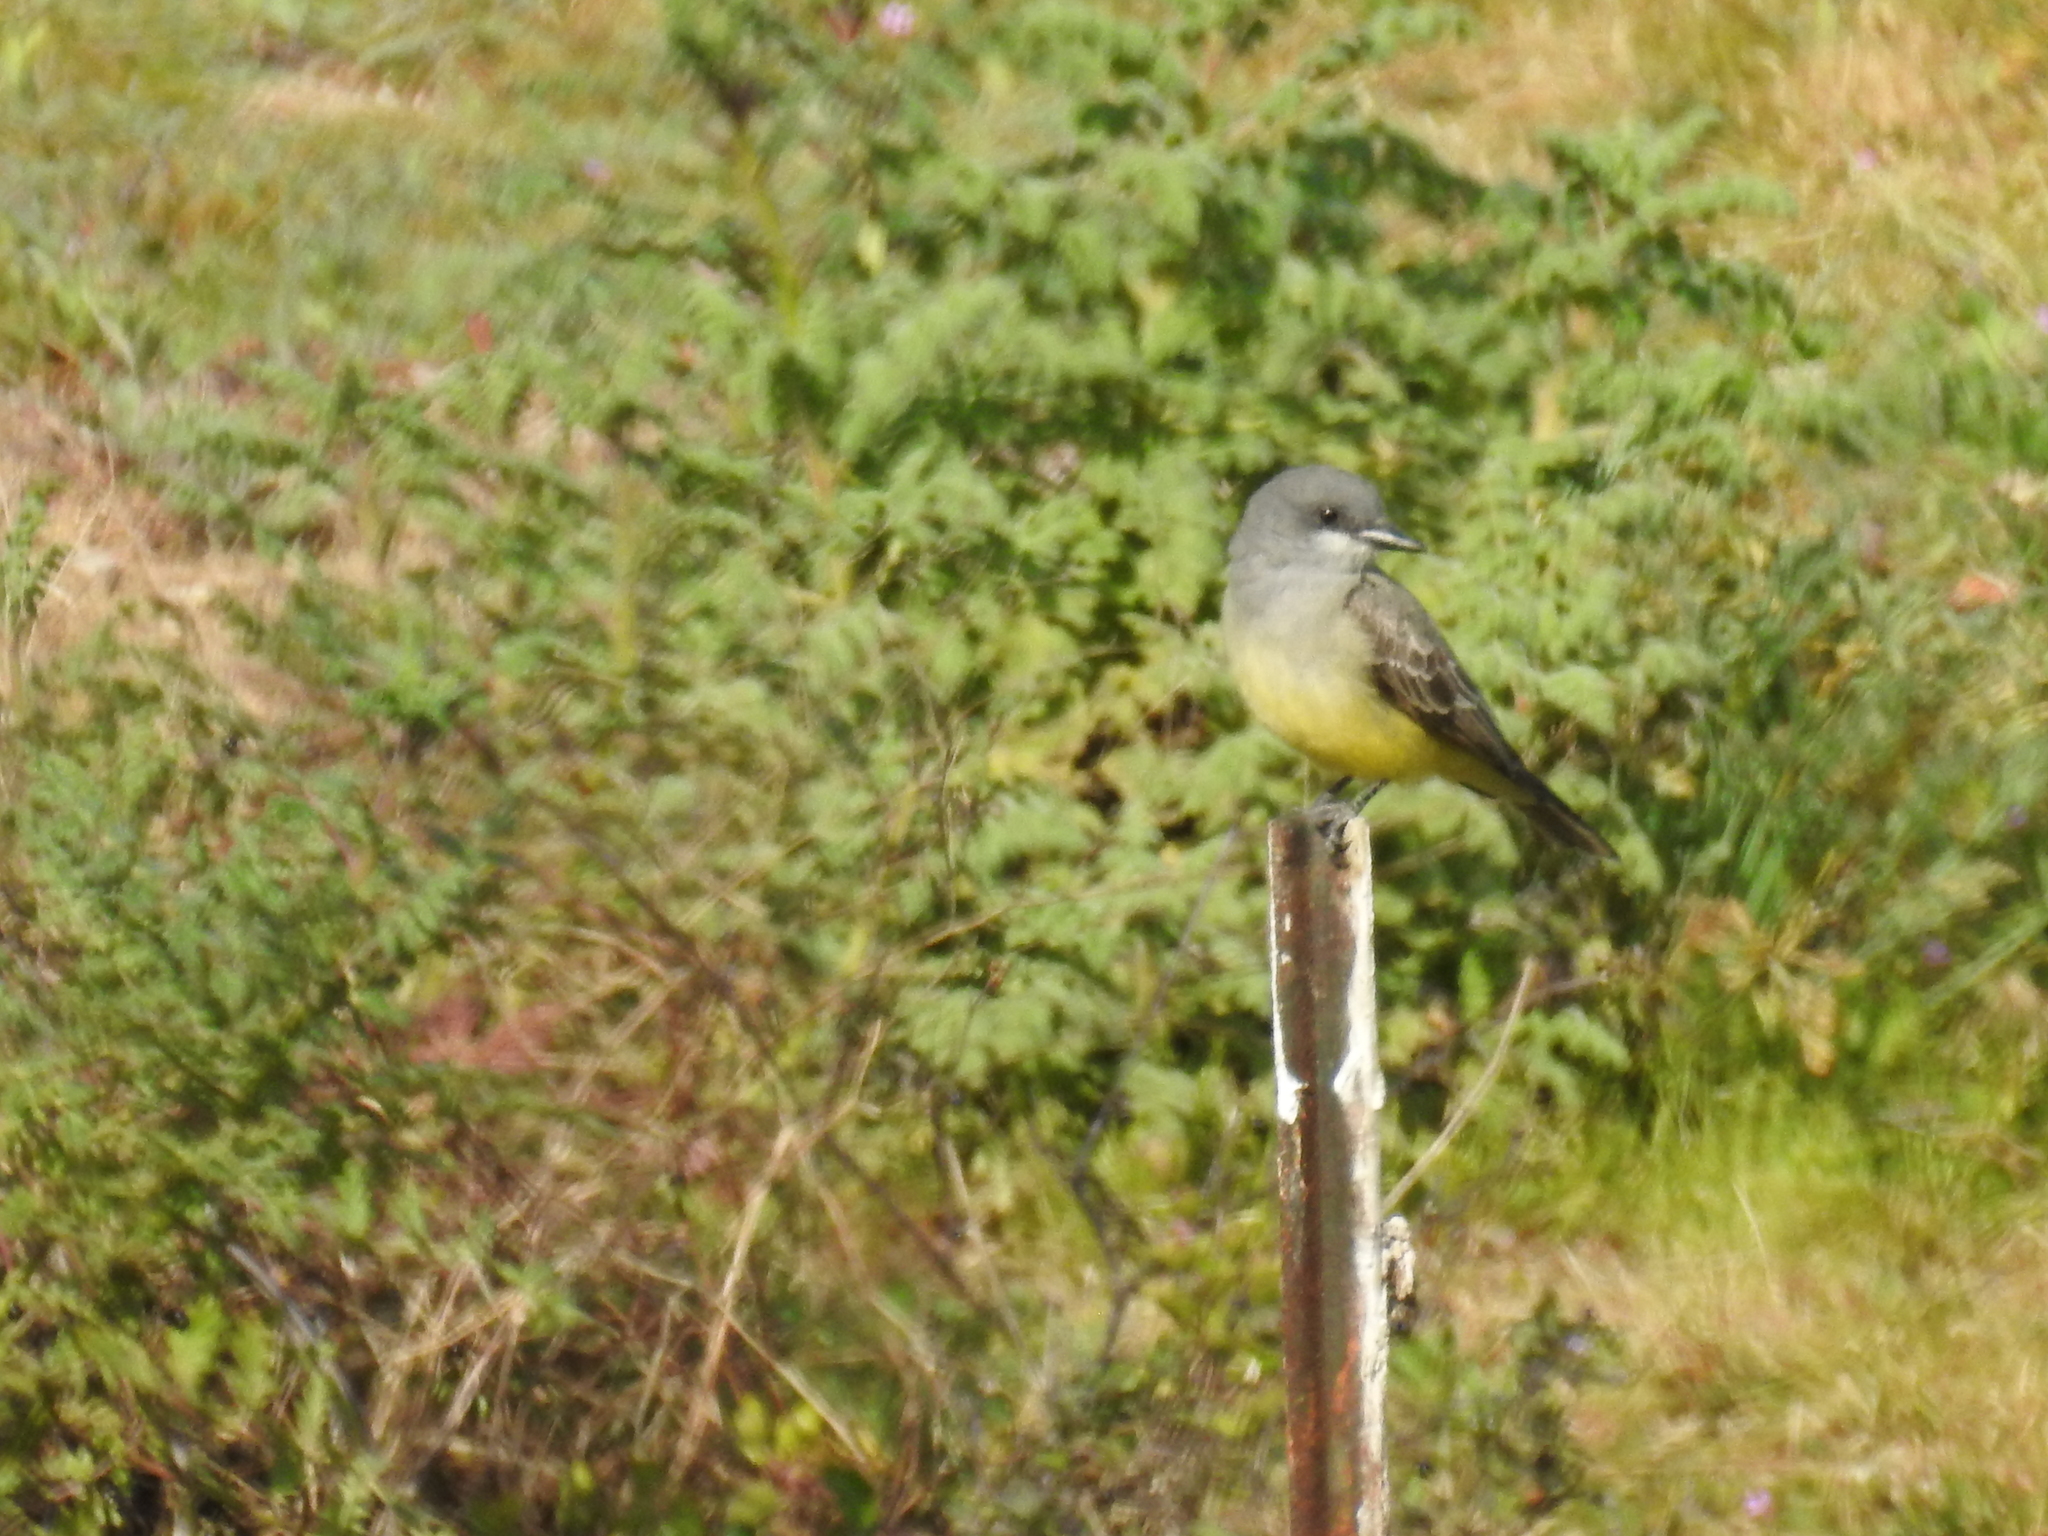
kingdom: Animalia
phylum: Chordata
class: Aves
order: Passeriformes
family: Tyrannidae
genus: Tyrannus
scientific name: Tyrannus vociferans
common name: Cassin's kingbird
